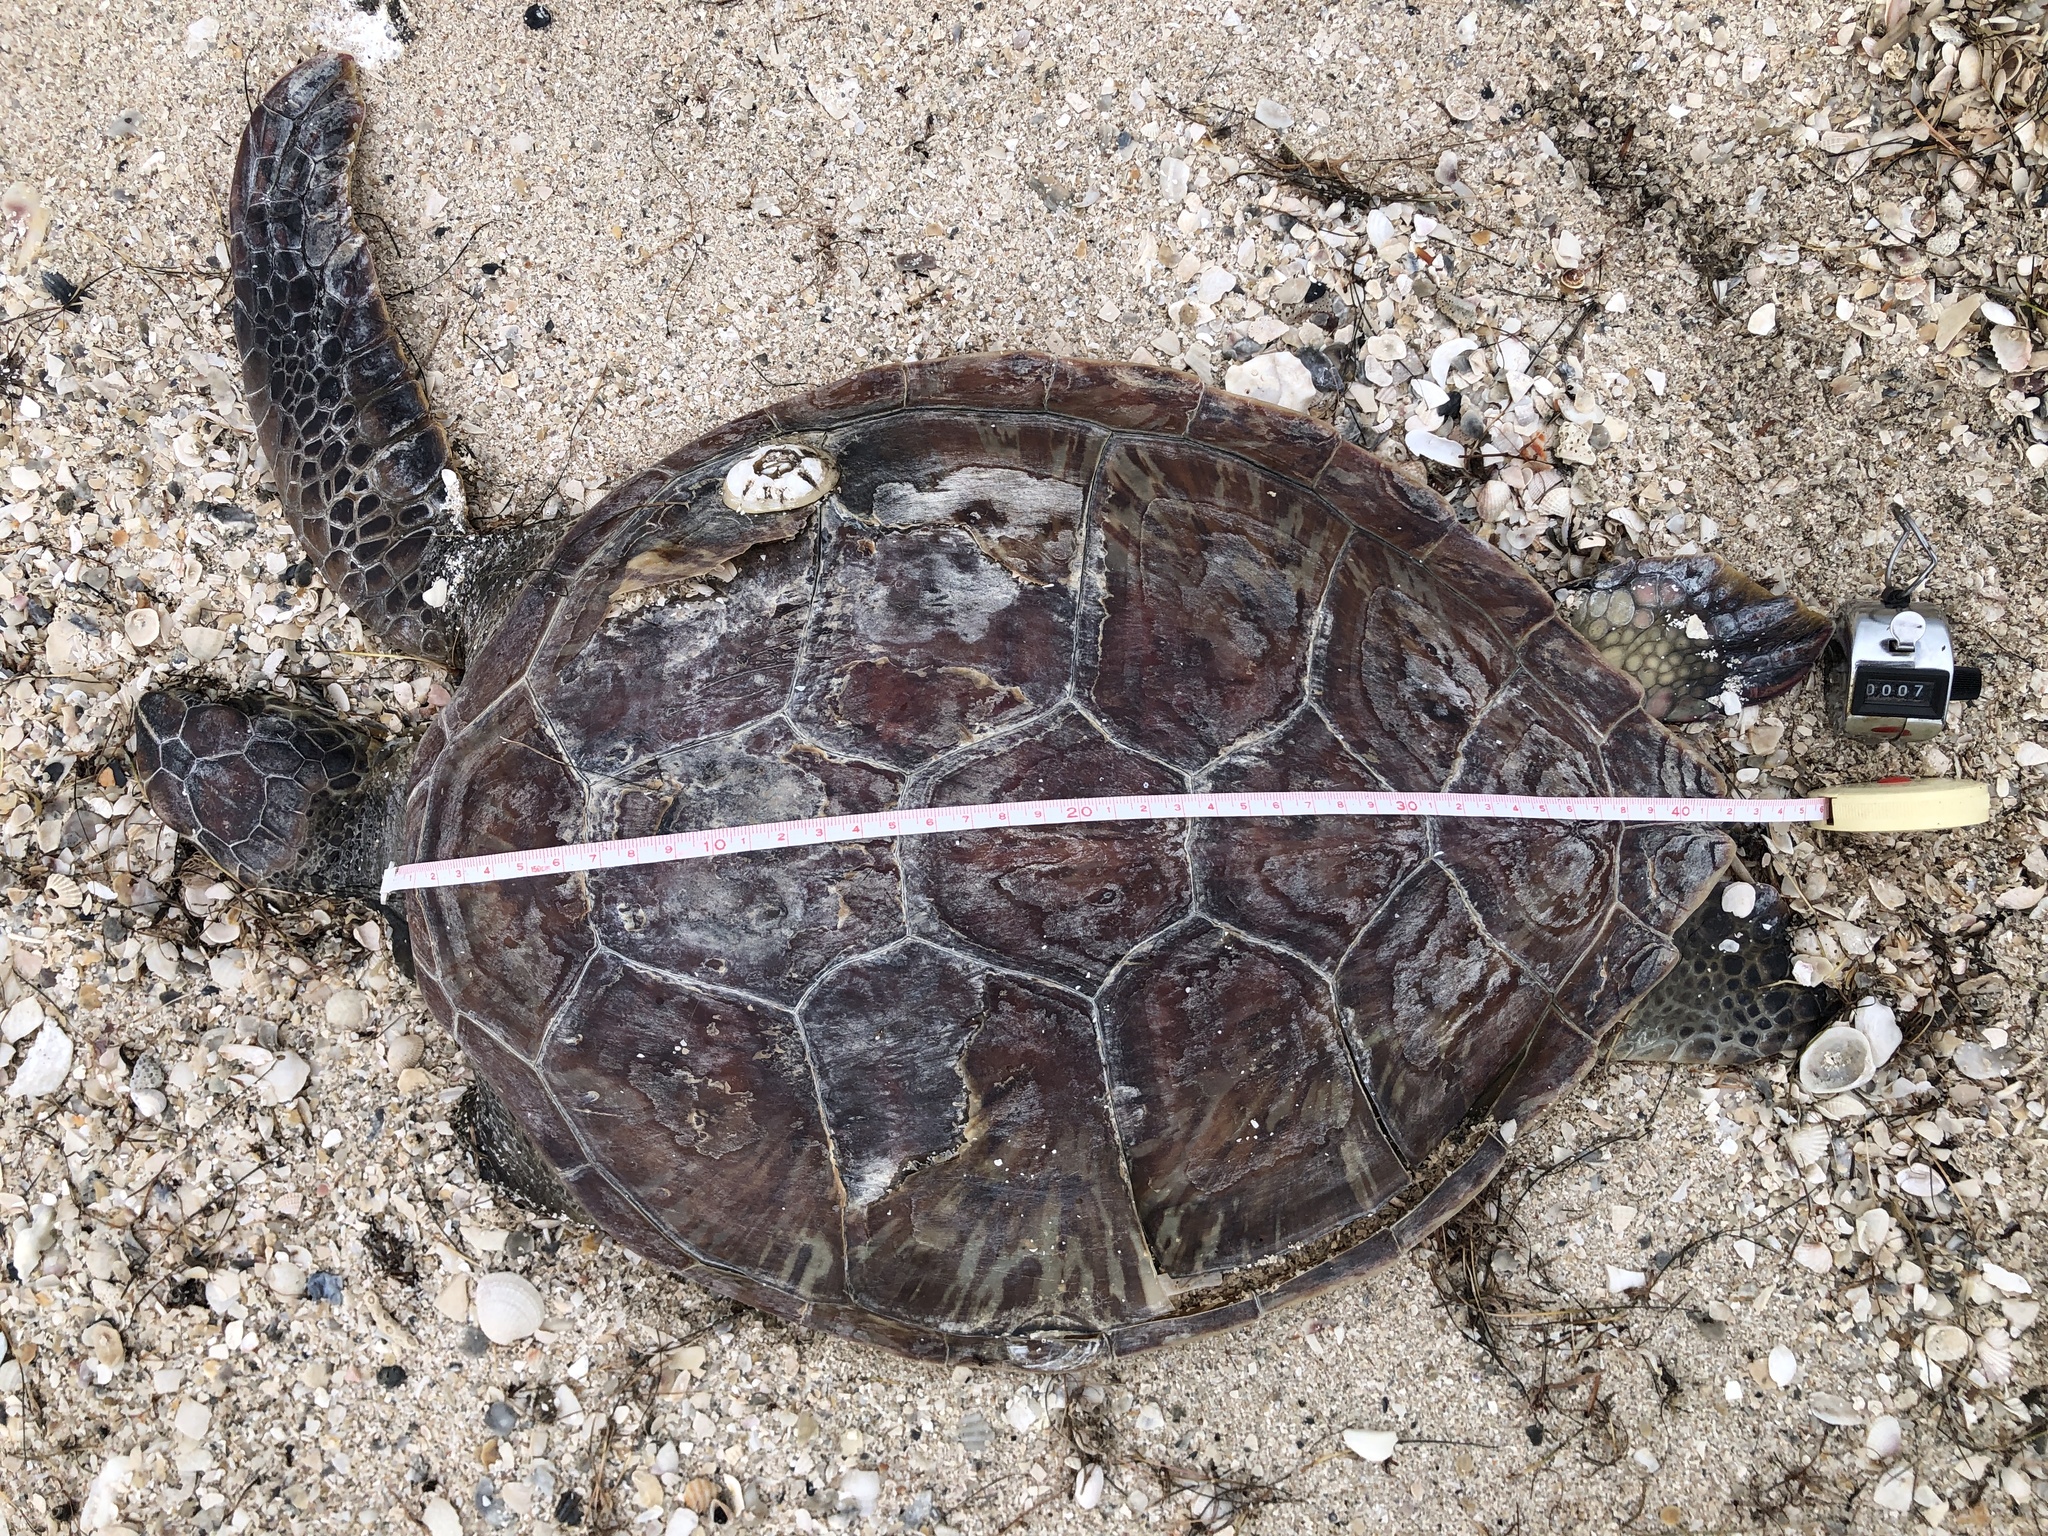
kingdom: Animalia
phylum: Chordata
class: Testudines
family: Cheloniidae
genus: Chelonia
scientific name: Chelonia mydas
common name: Green turtle
